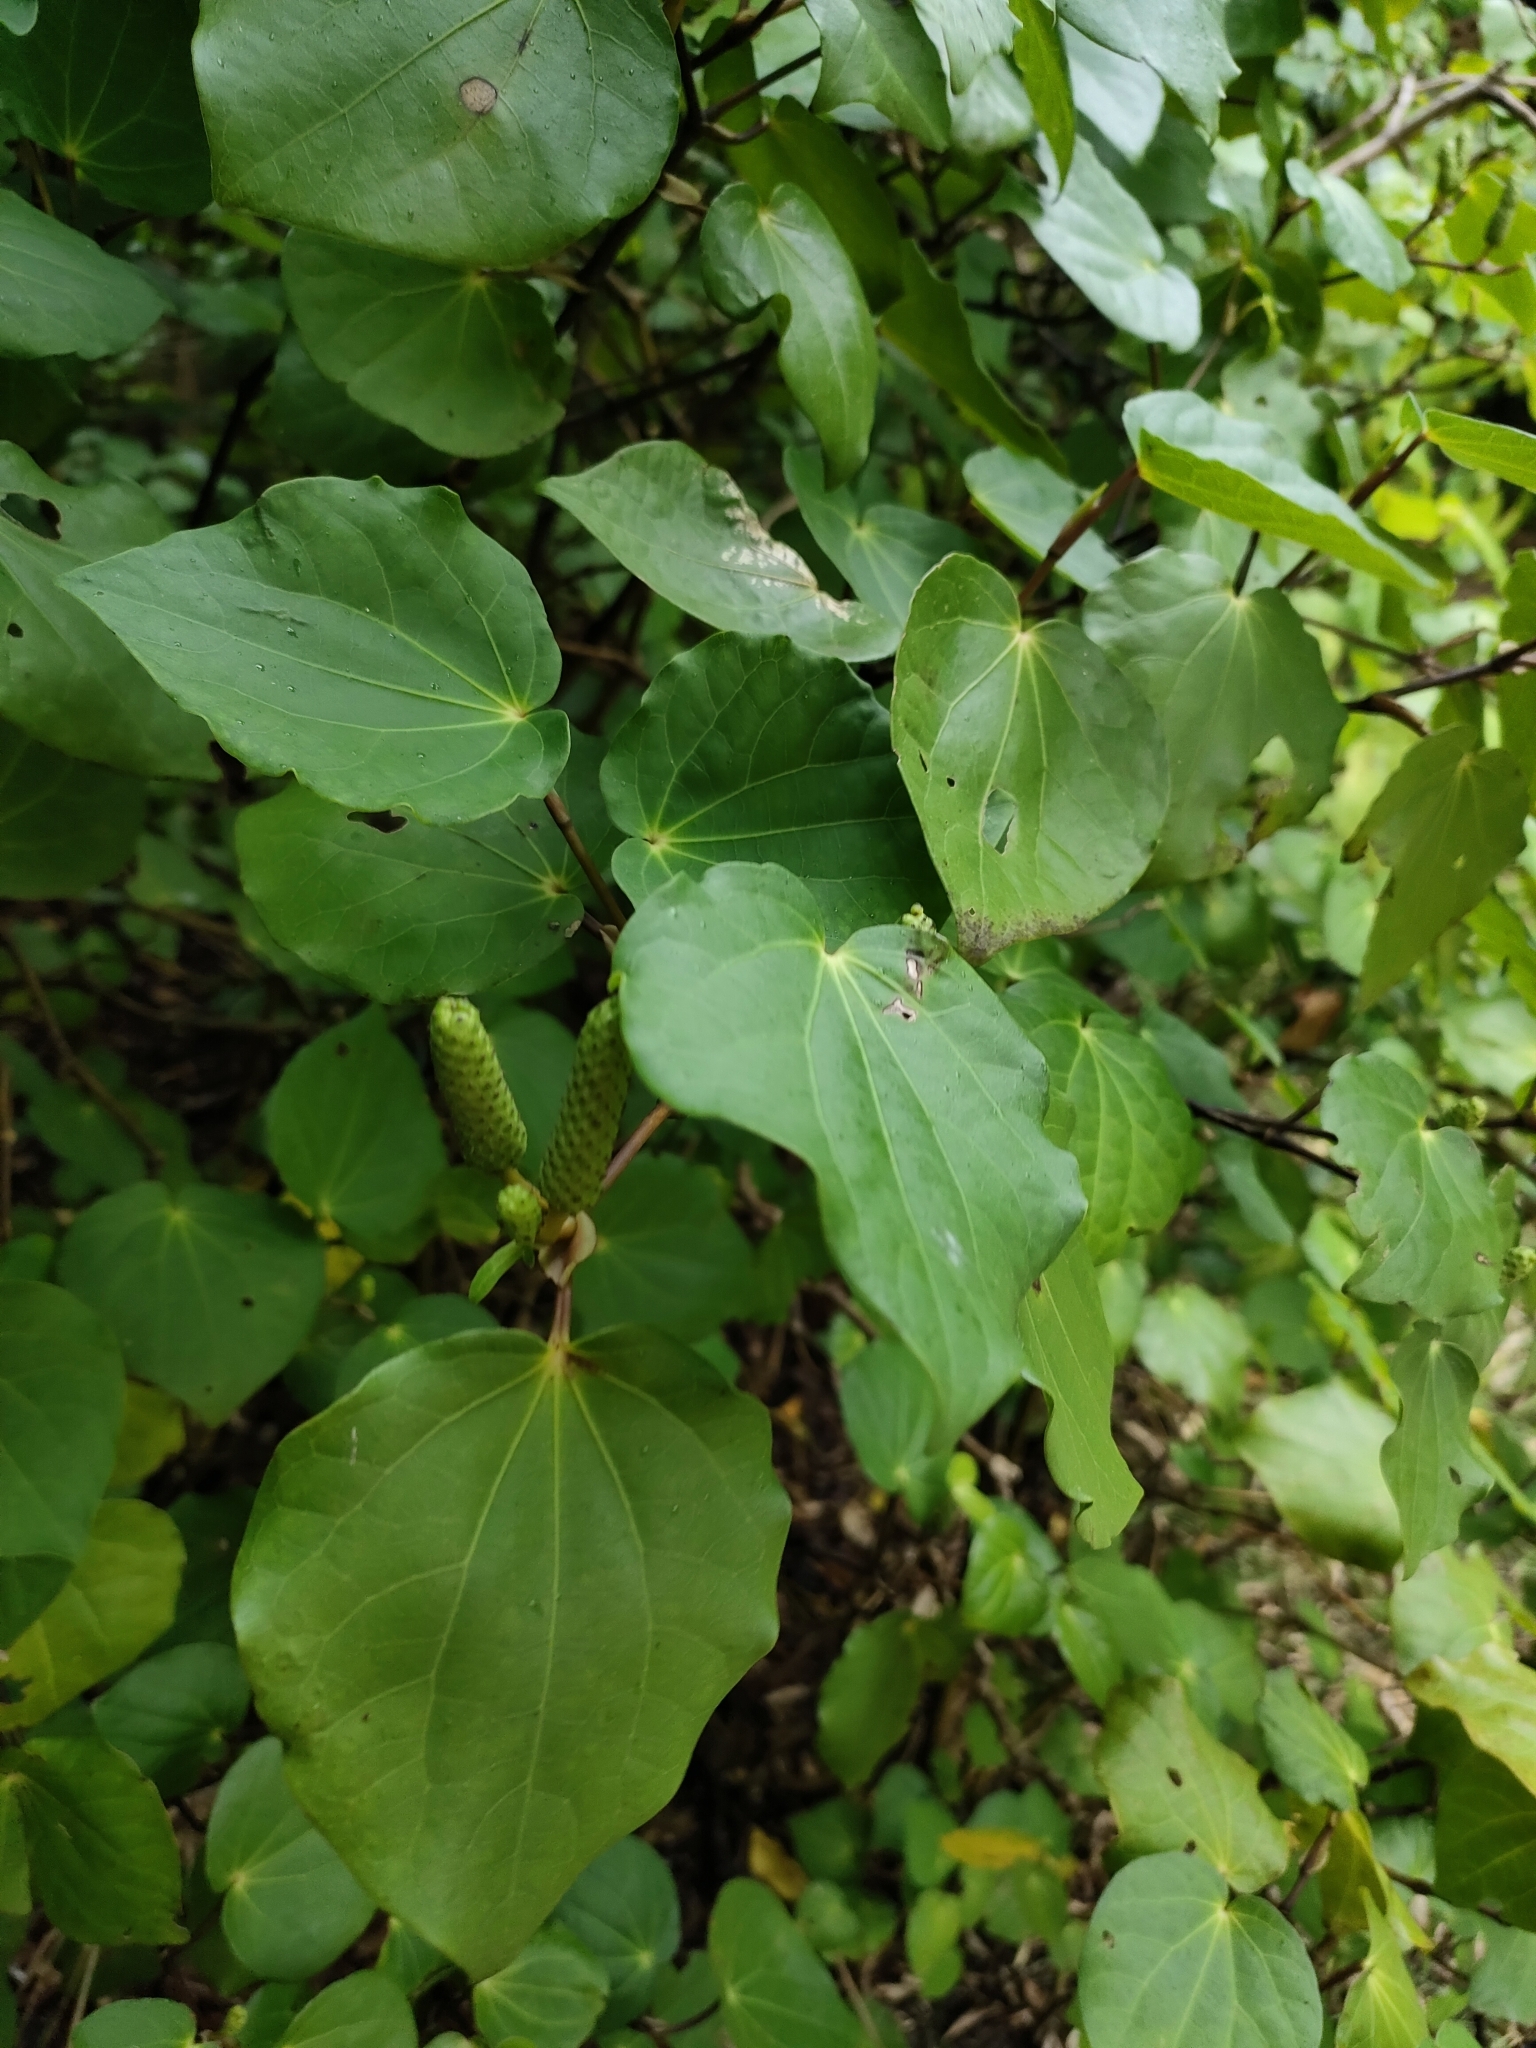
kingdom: Plantae
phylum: Tracheophyta
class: Magnoliopsida
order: Piperales
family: Piperaceae
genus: Macropiper
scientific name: Macropiper excelsum
